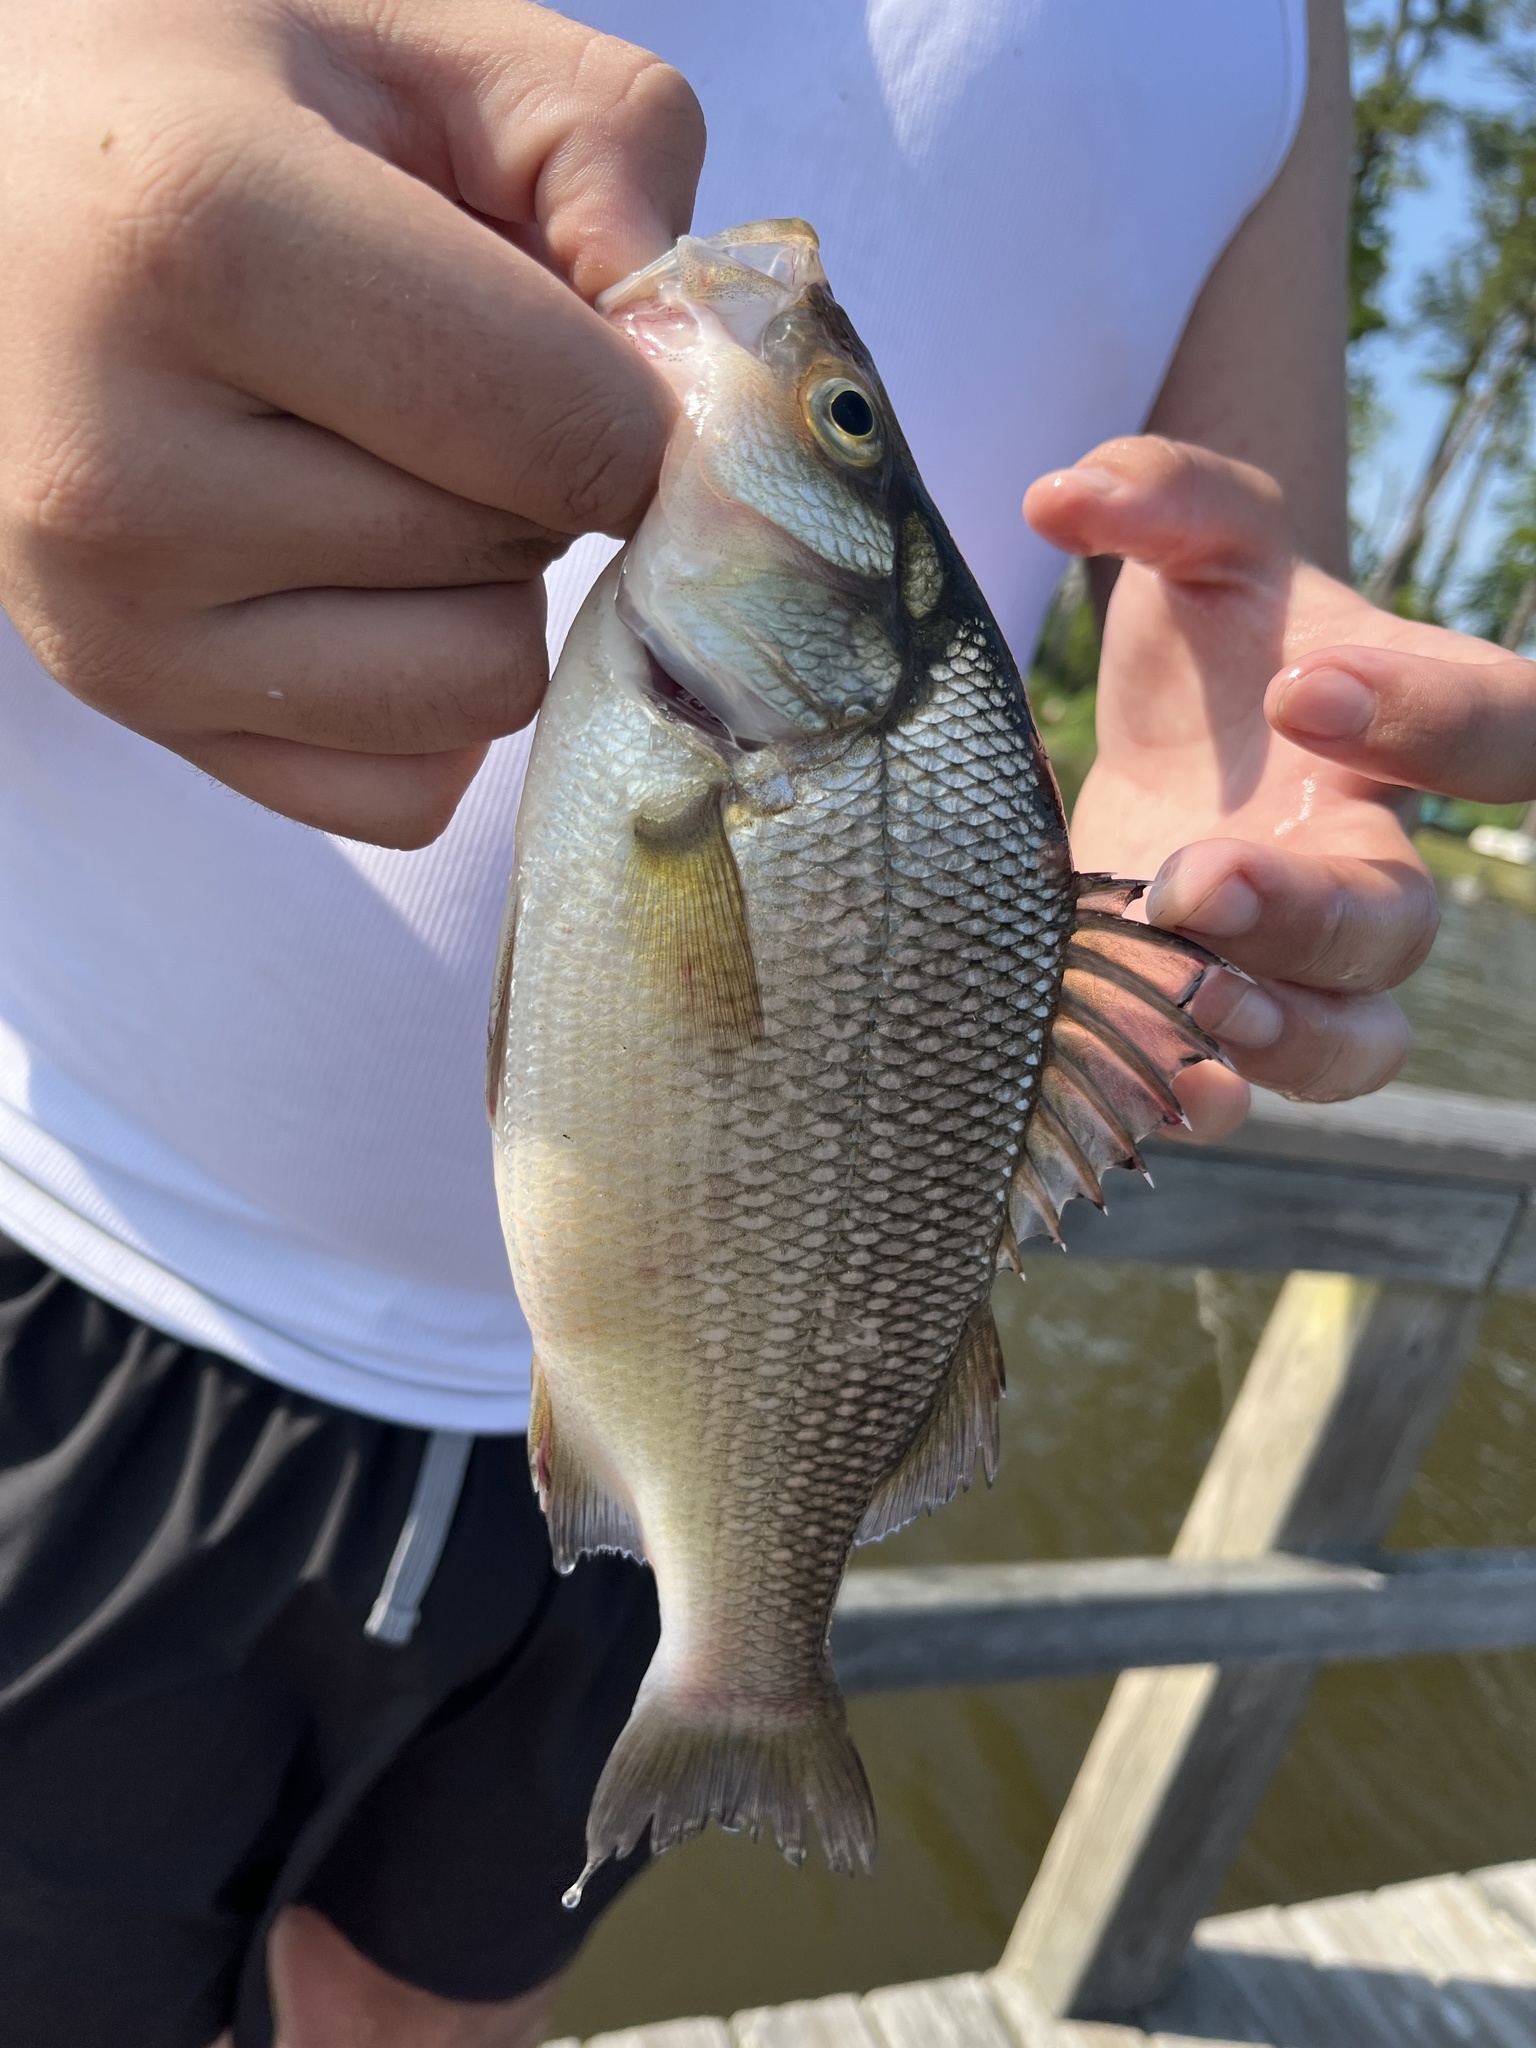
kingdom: Animalia
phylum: Chordata
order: Perciformes
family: Moronidae
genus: Morone
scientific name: Morone americana
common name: White perch
